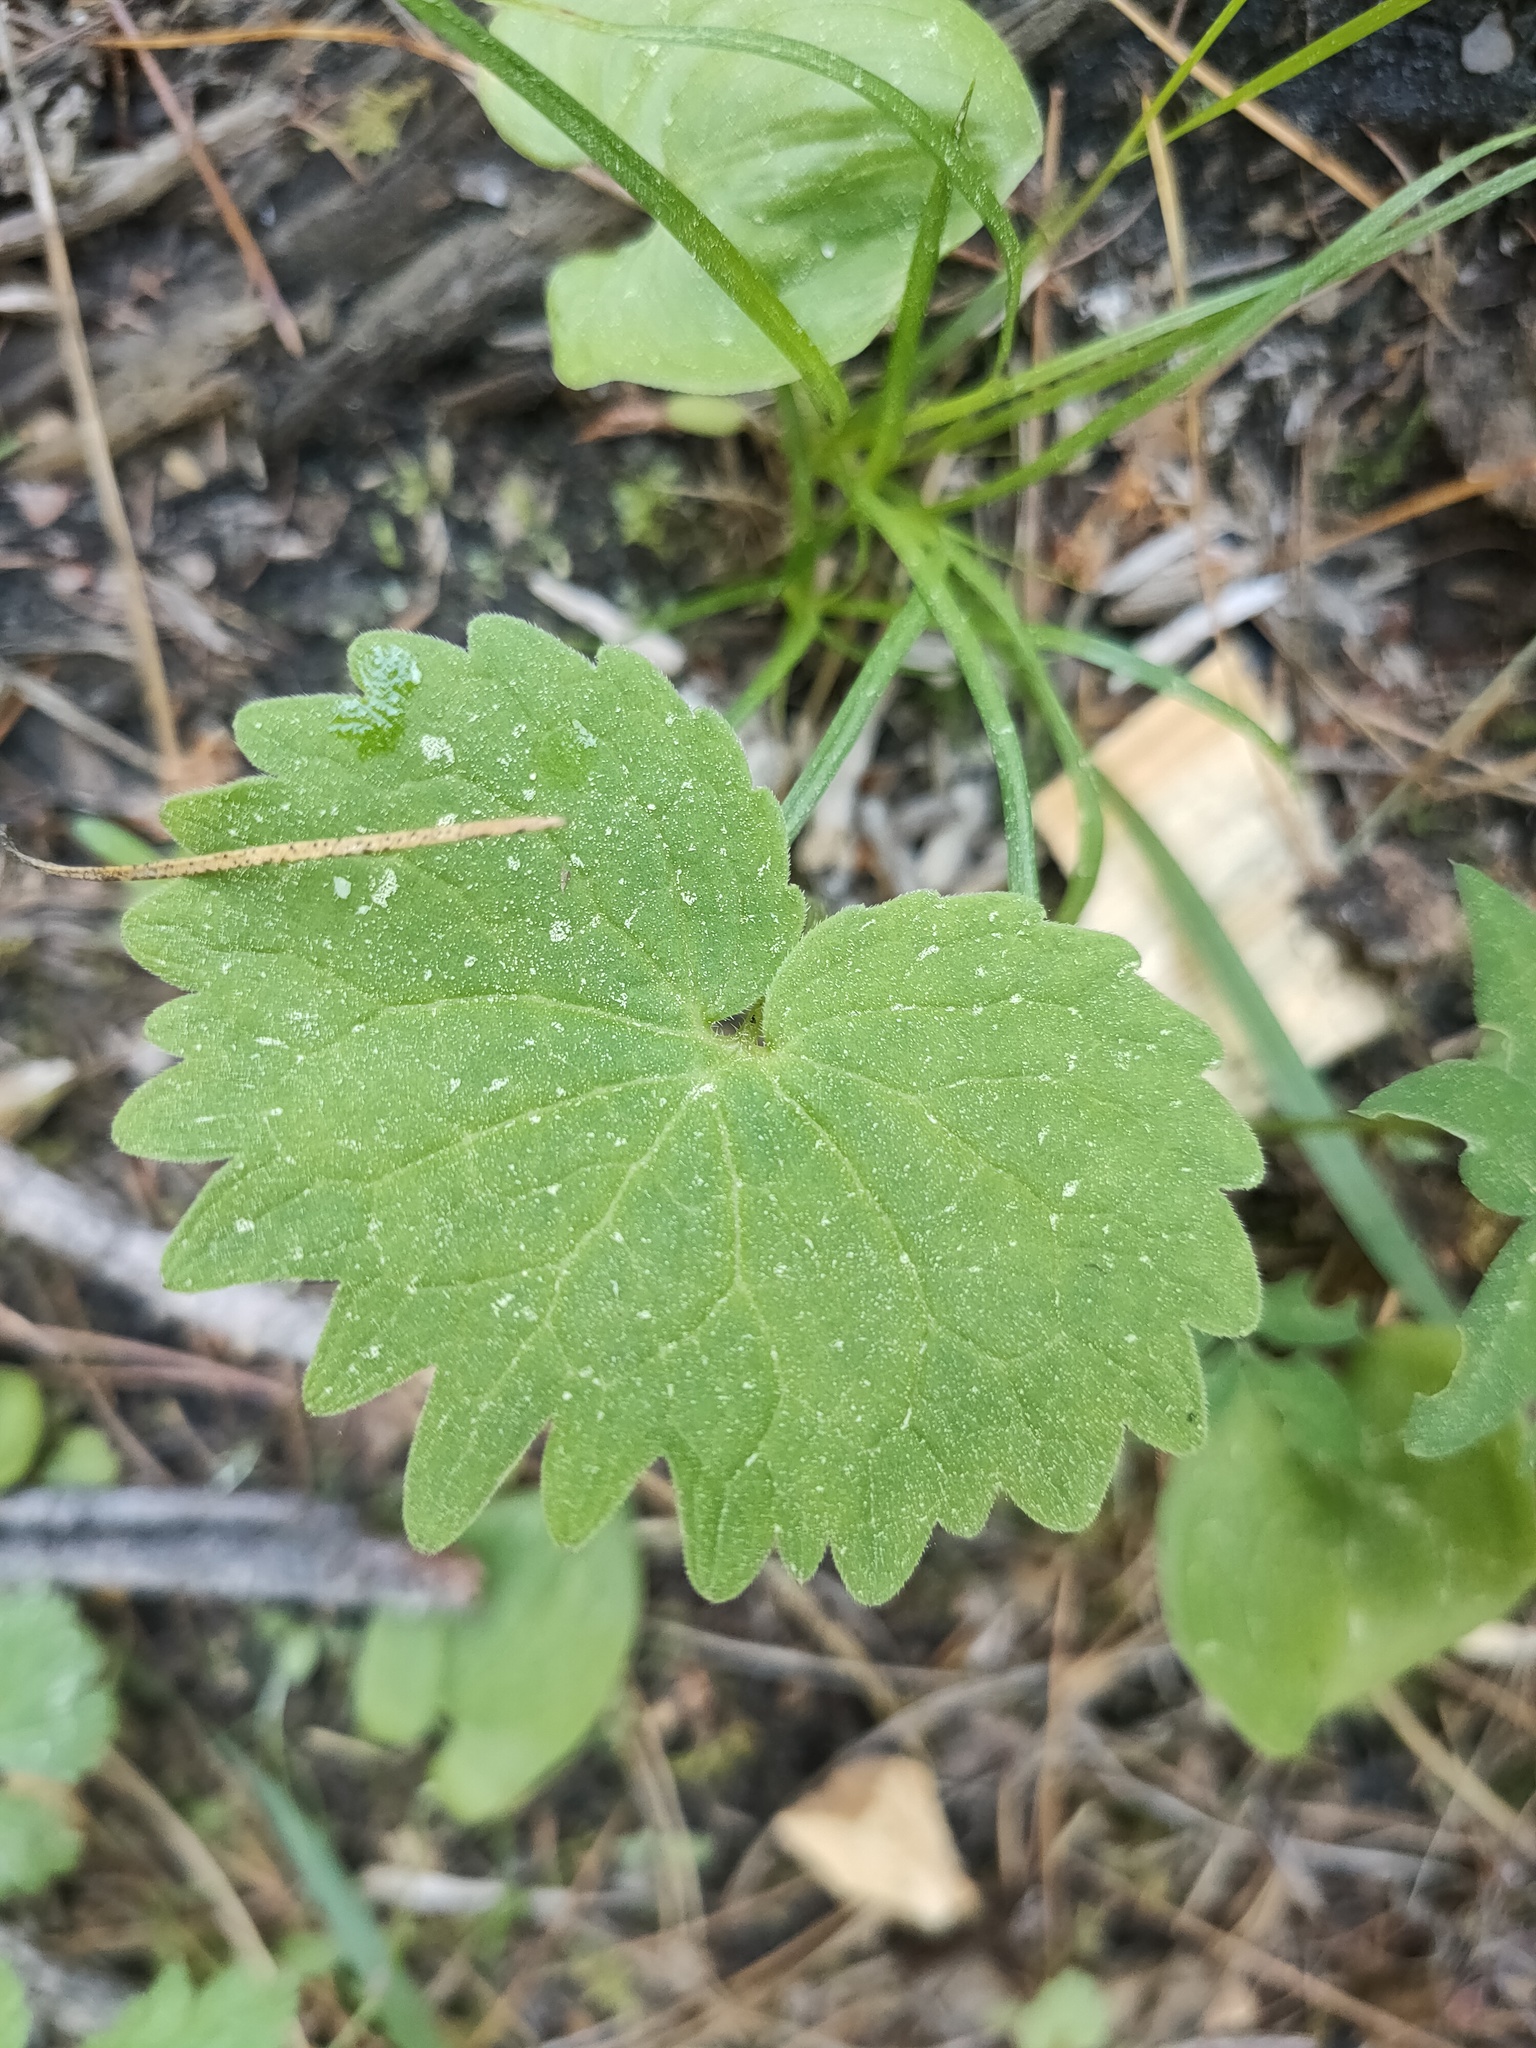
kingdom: Plantae
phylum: Tracheophyta
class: Magnoliopsida
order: Malpighiales
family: Violaceae
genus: Viola
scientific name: Viola uniflora
